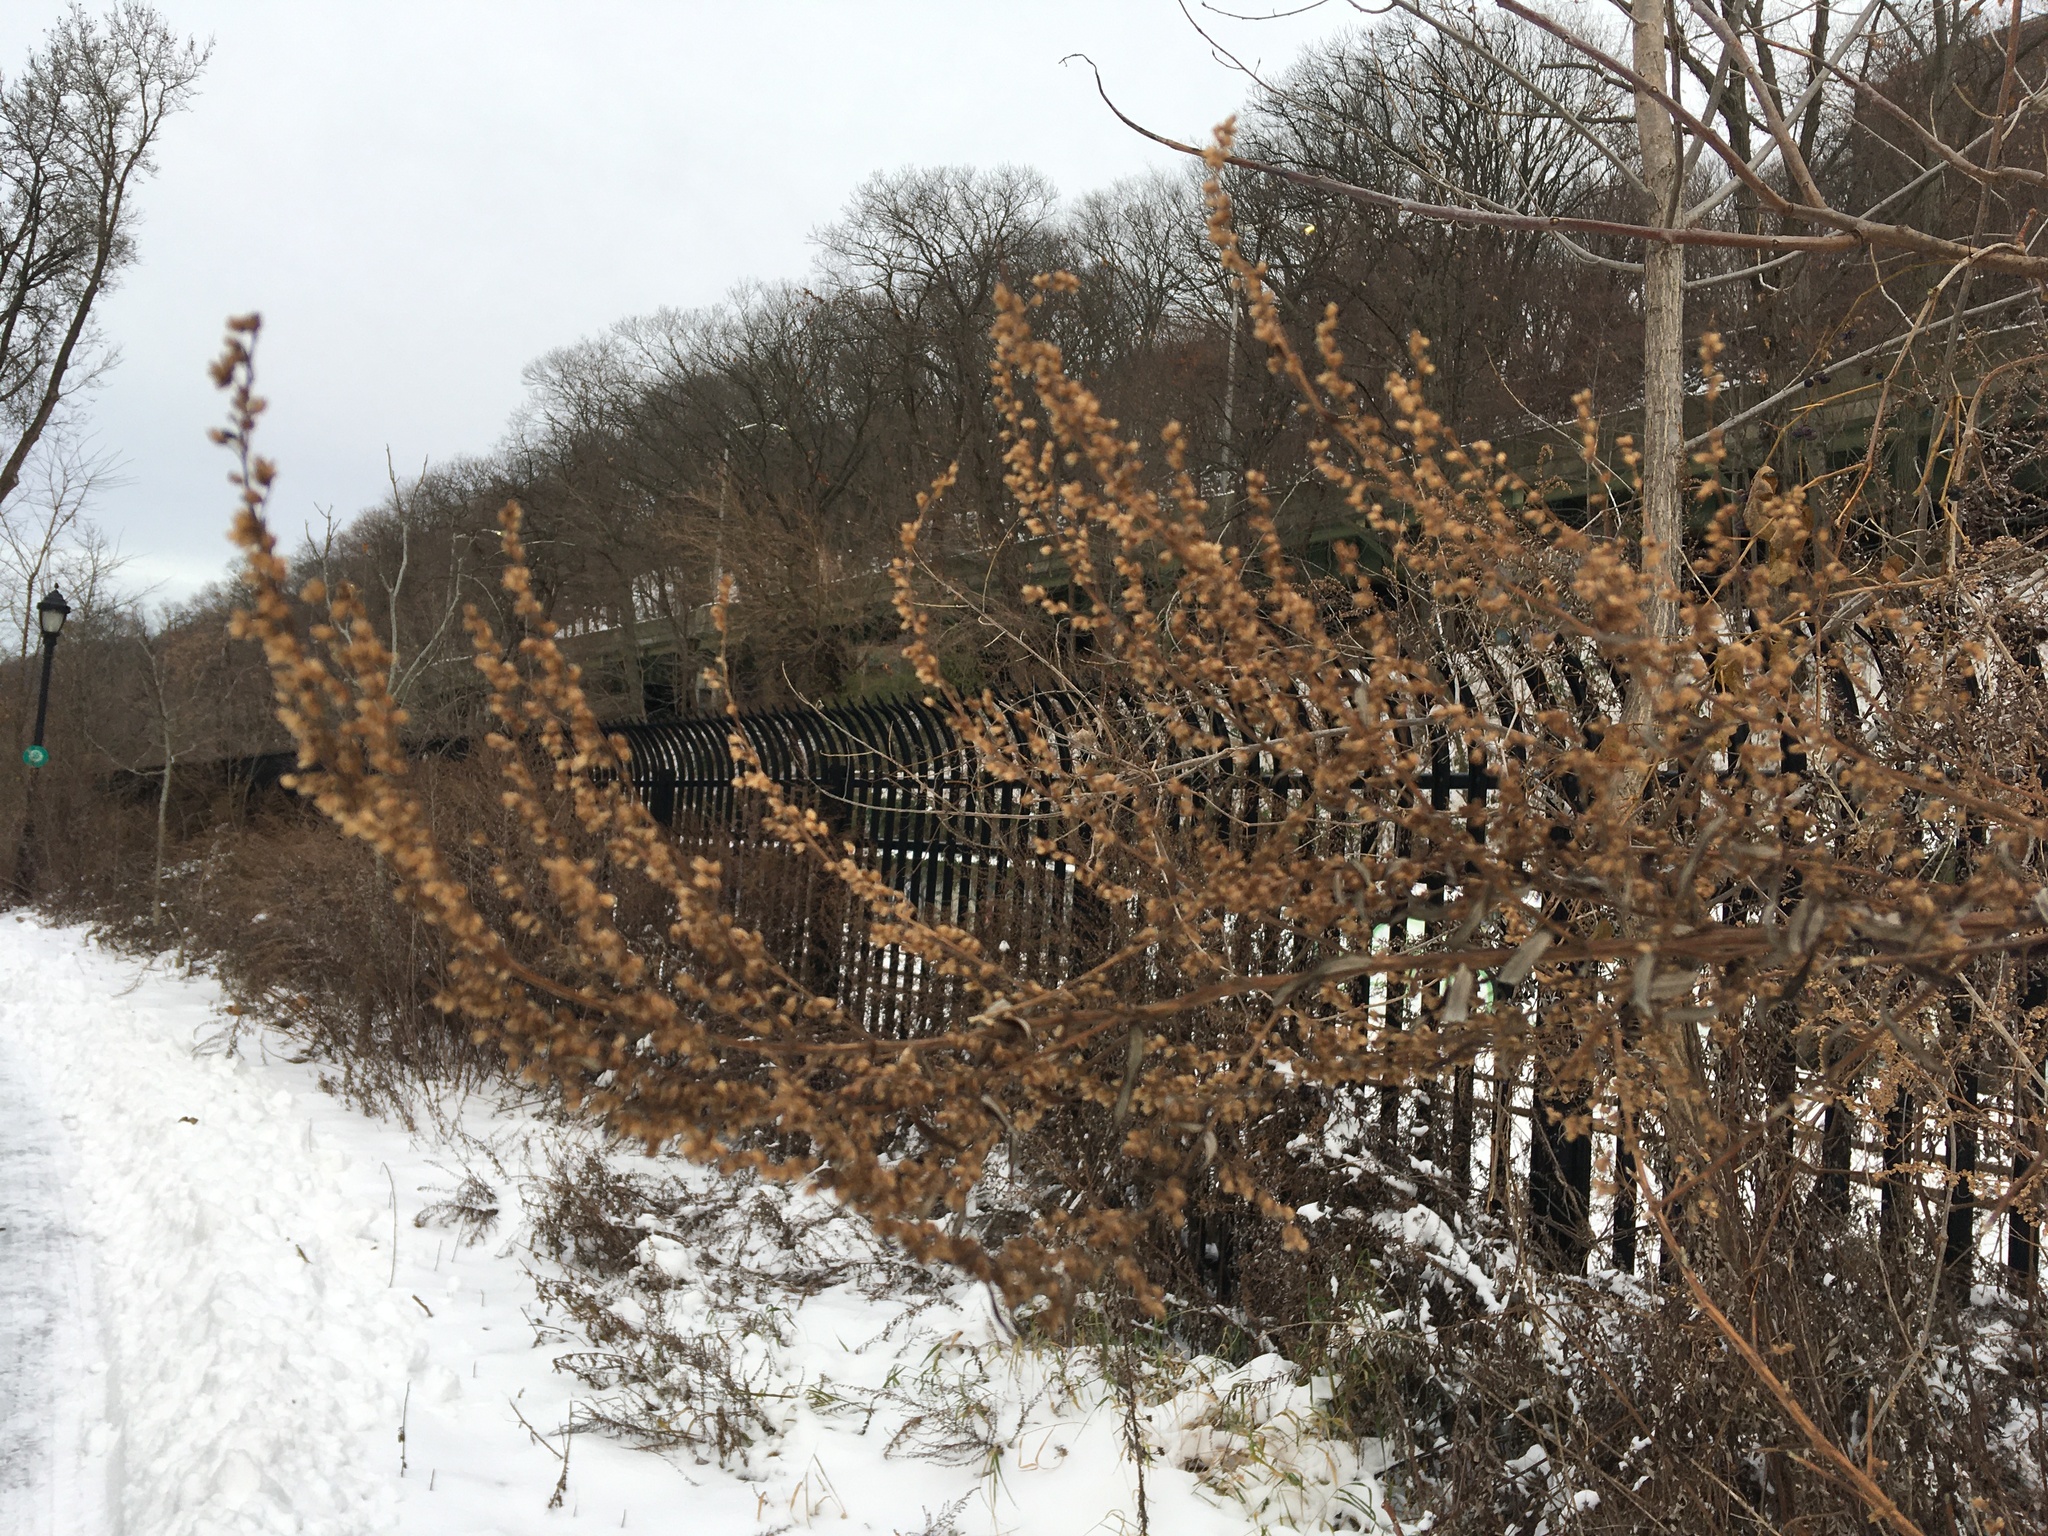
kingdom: Plantae
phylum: Tracheophyta
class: Magnoliopsida
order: Asterales
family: Asteraceae
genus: Artemisia
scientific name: Artemisia vulgaris
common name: Mugwort
